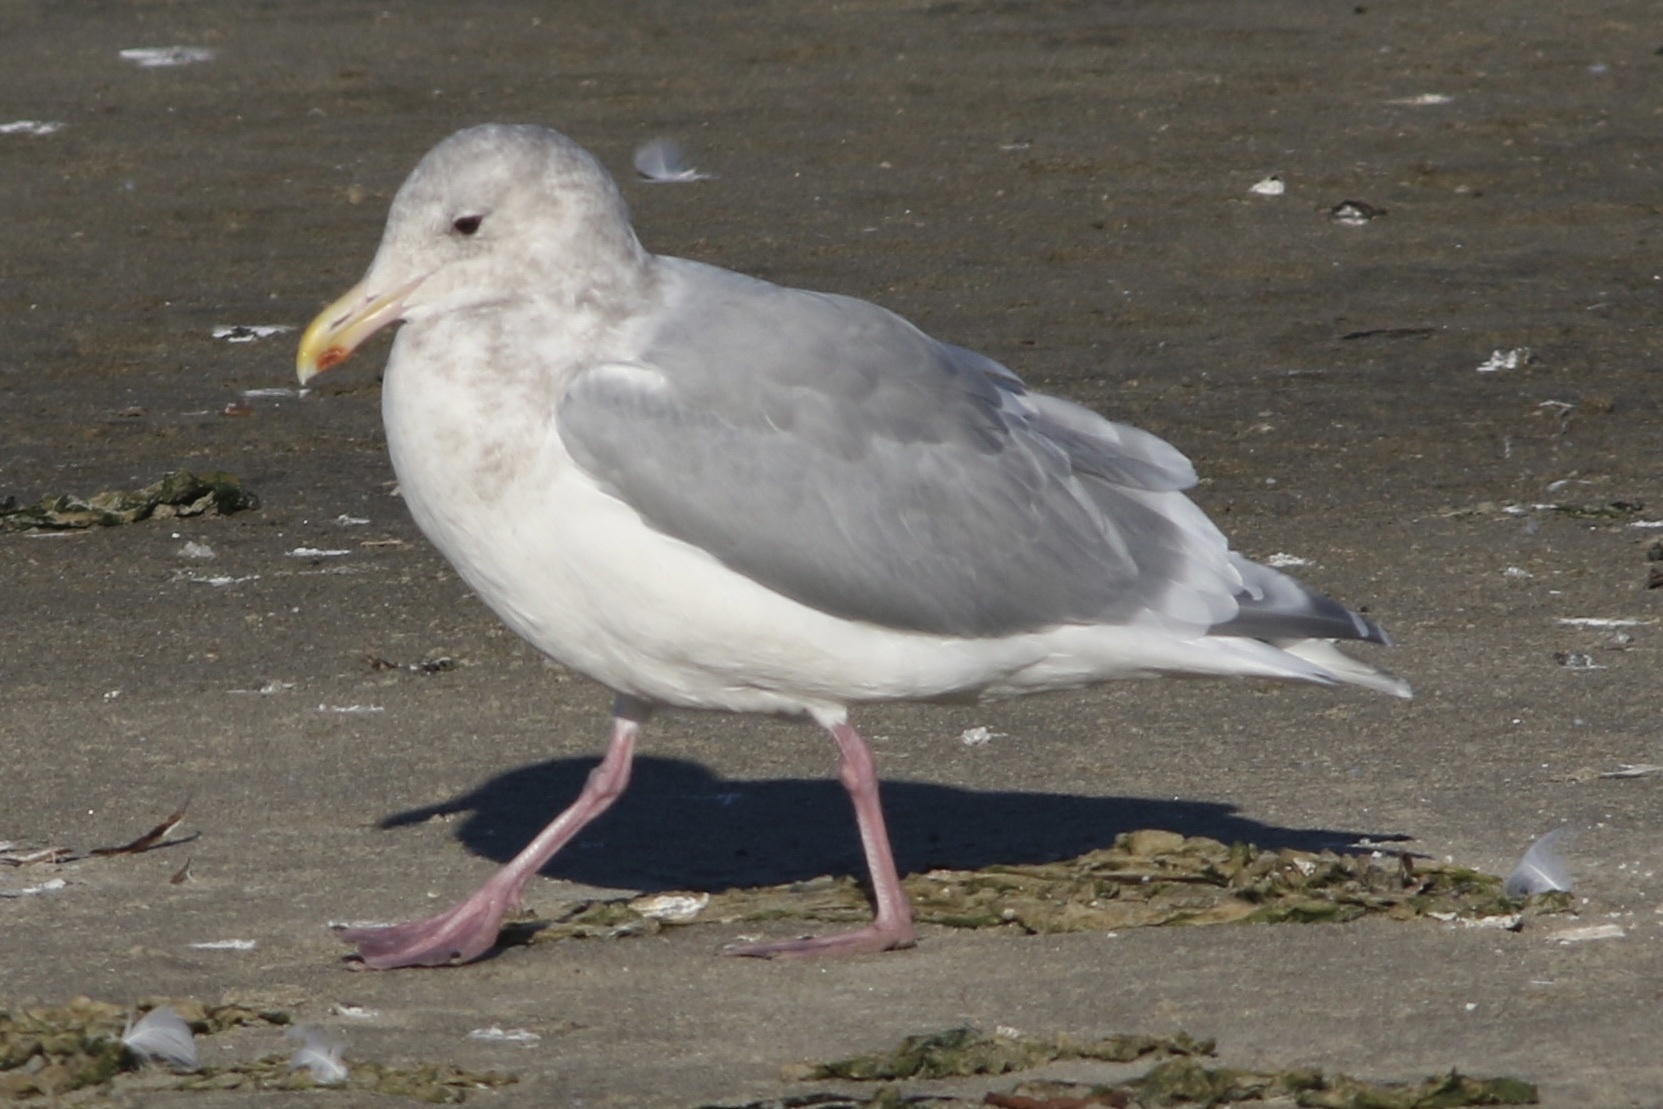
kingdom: Animalia
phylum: Chordata
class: Aves
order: Charadriiformes
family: Laridae
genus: Larus
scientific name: Larus glaucescens
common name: Glaucous-winged gull
